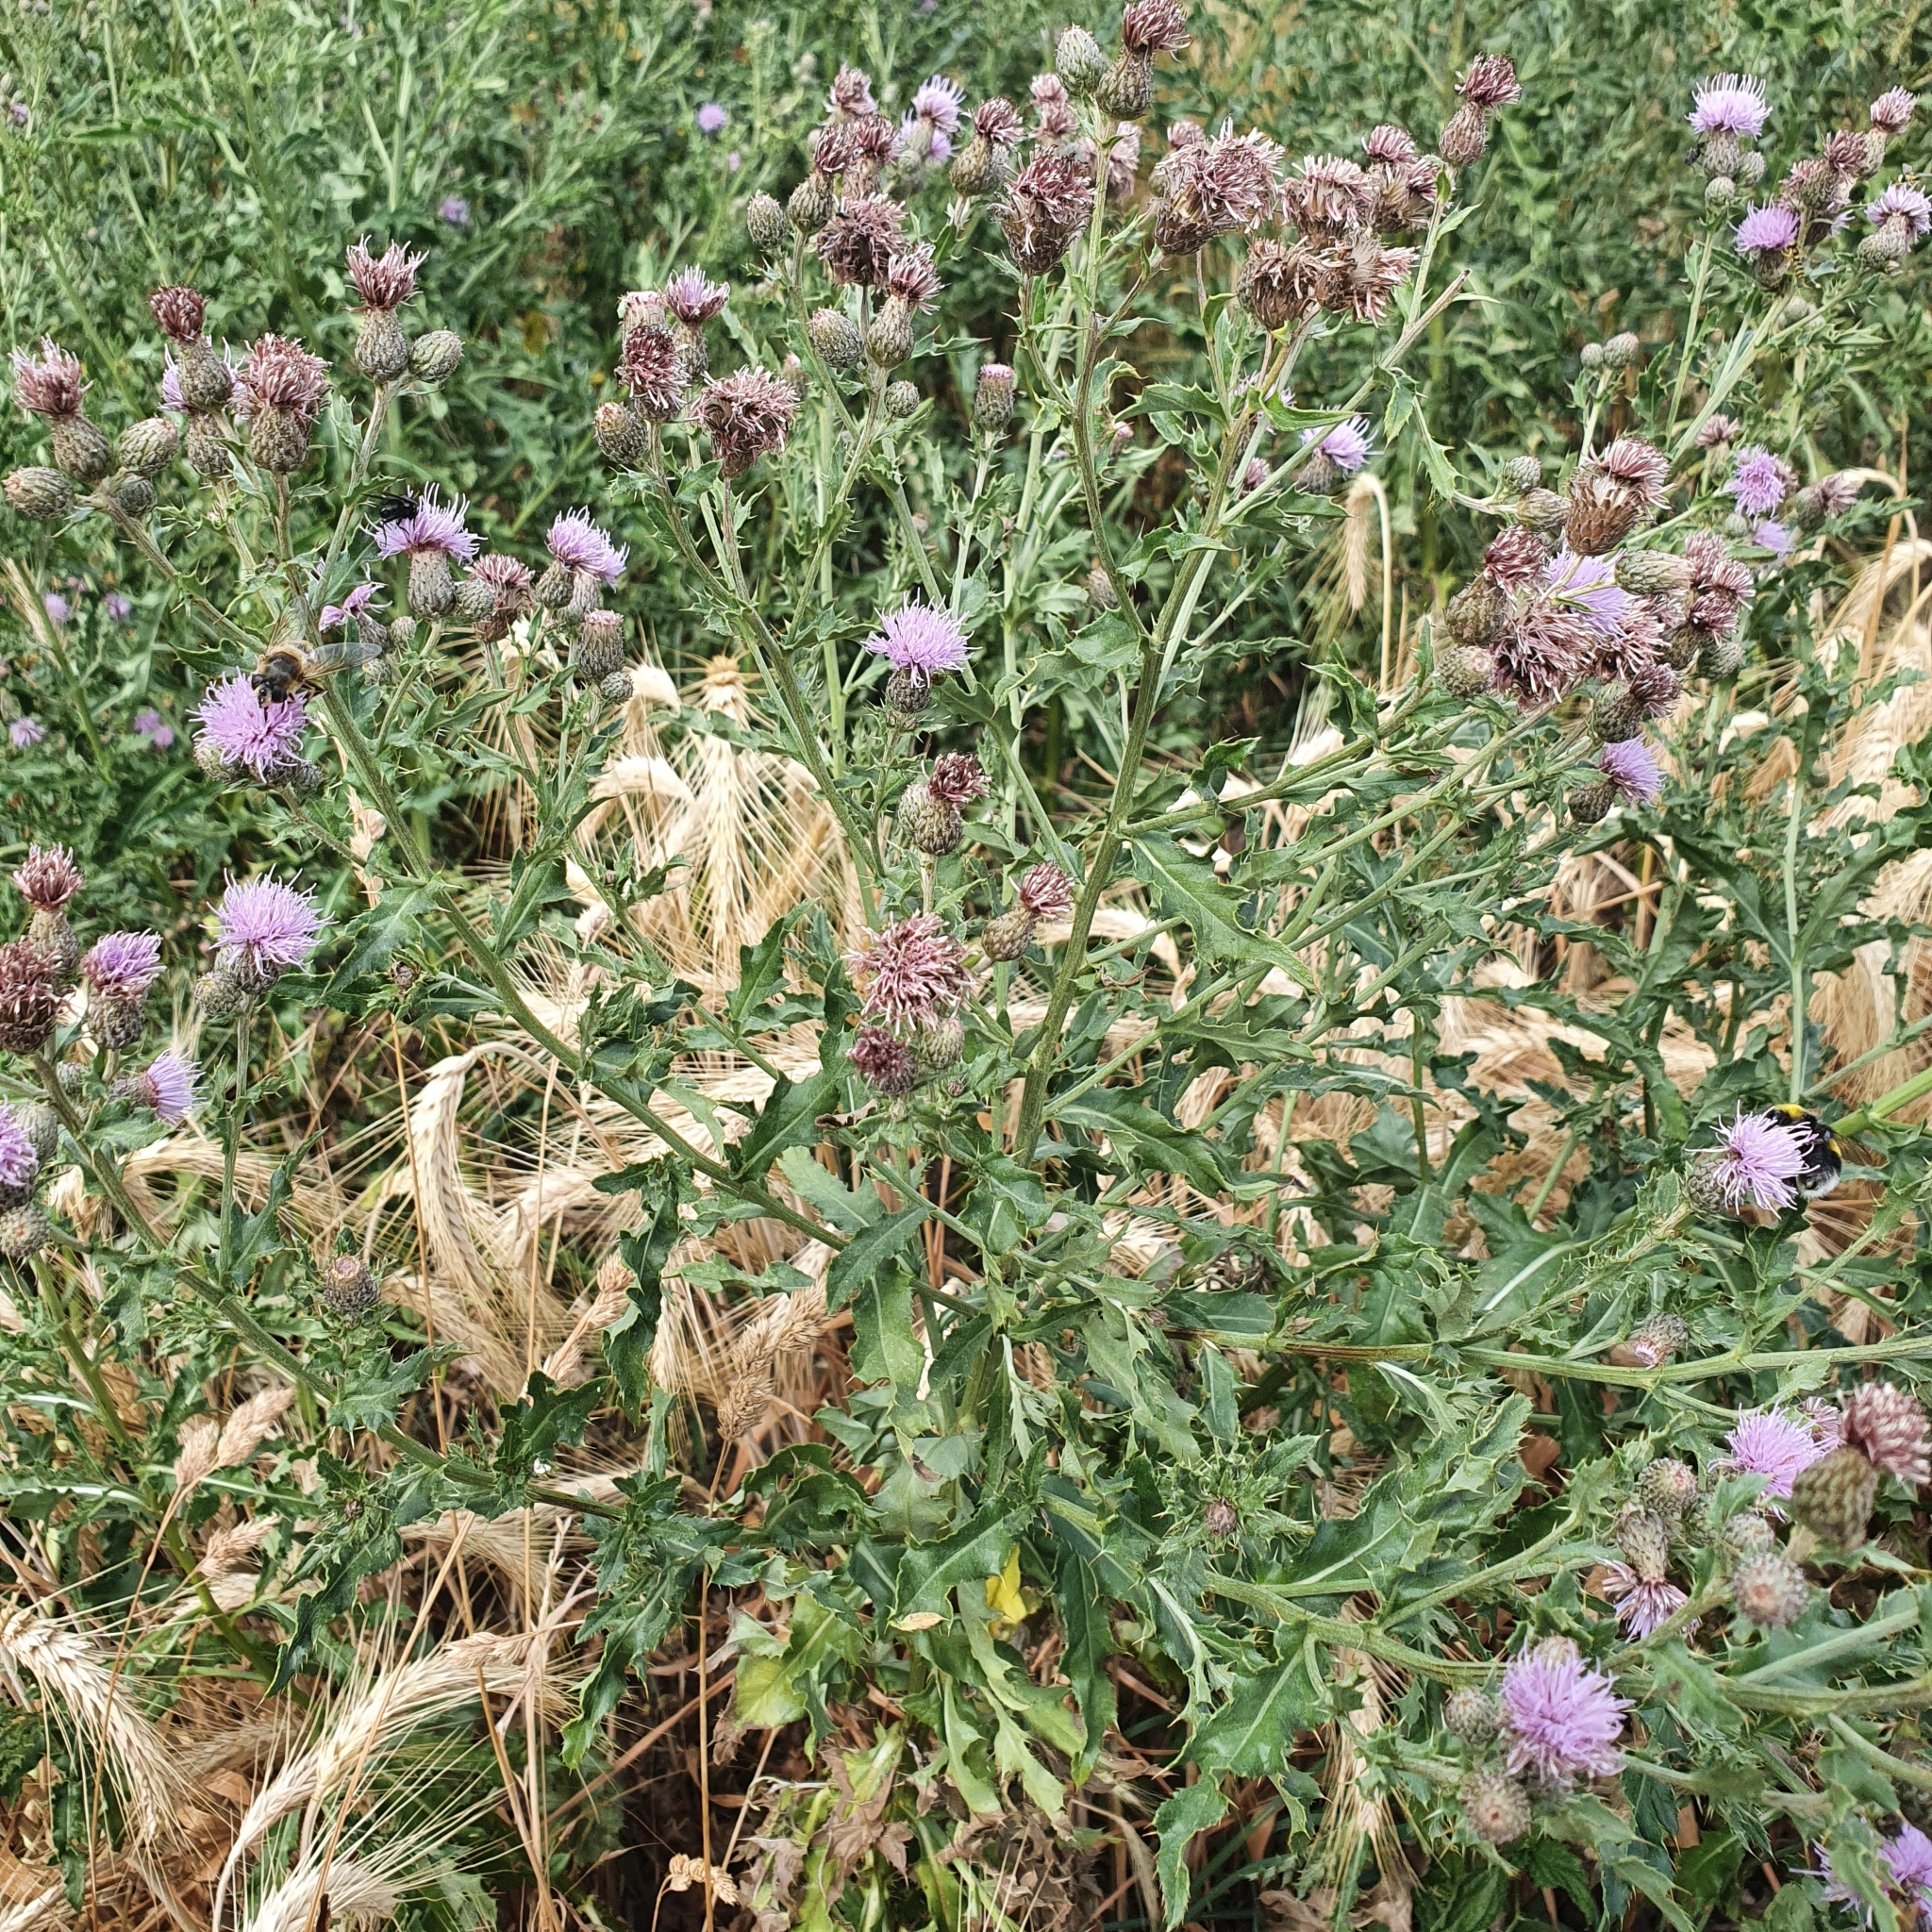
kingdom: Plantae
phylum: Tracheophyta
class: Magnoliopsida
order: Asterales
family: Asteraceae
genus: Cirsium
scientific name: Cirsium arvense
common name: Creeping thistle
